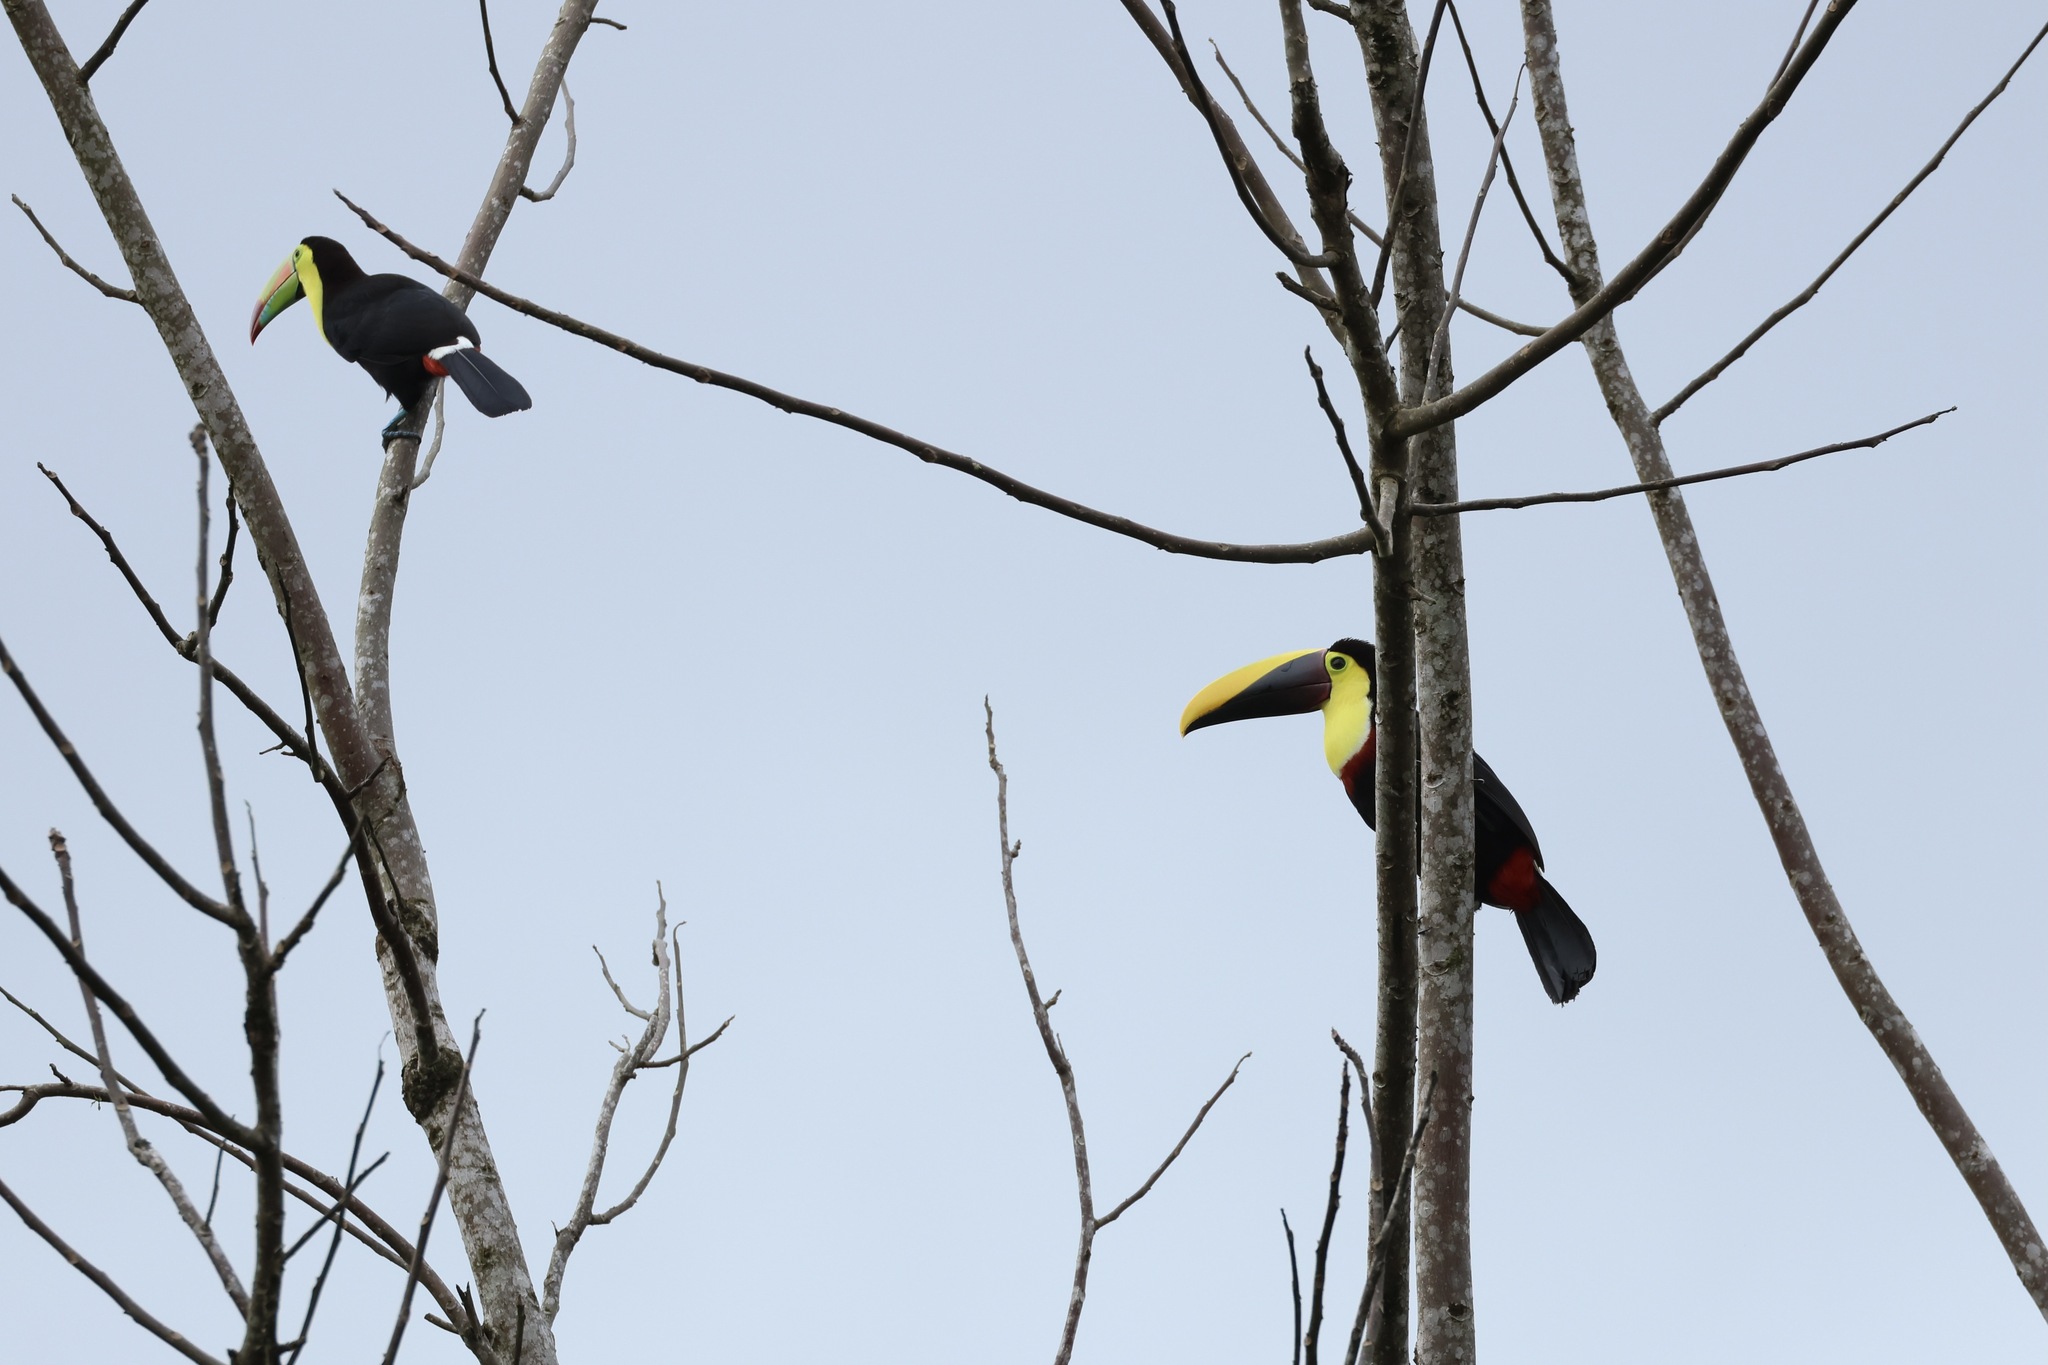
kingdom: Animalia
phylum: Chordata
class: Aves
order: Piciformes
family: Ramphastidae
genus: Ramphastos
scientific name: Ramphastos ambiguus
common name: Yellow-throated toucan
